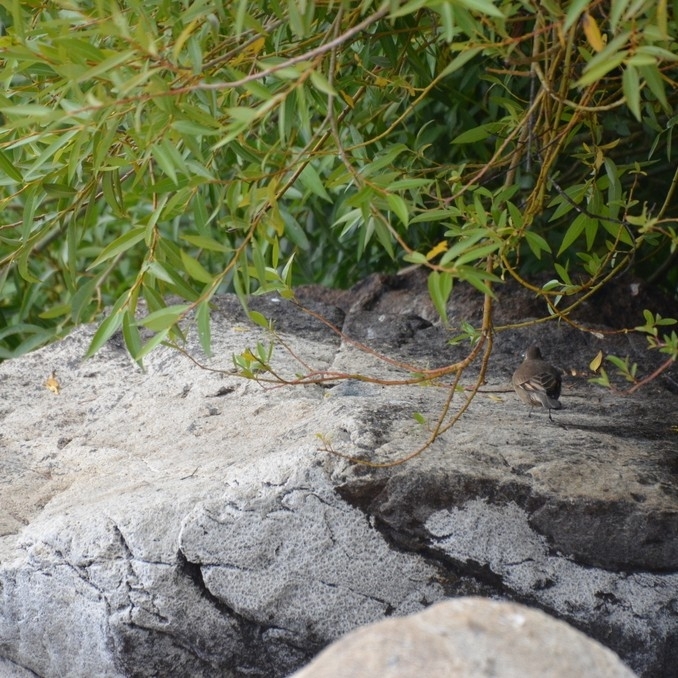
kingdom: Animalia
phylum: Chordata
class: Aves
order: Passeriformes
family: Furnariidae
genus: Cinclodes
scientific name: Cinclodes patagonicus
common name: Dark-bellied cinclodes
